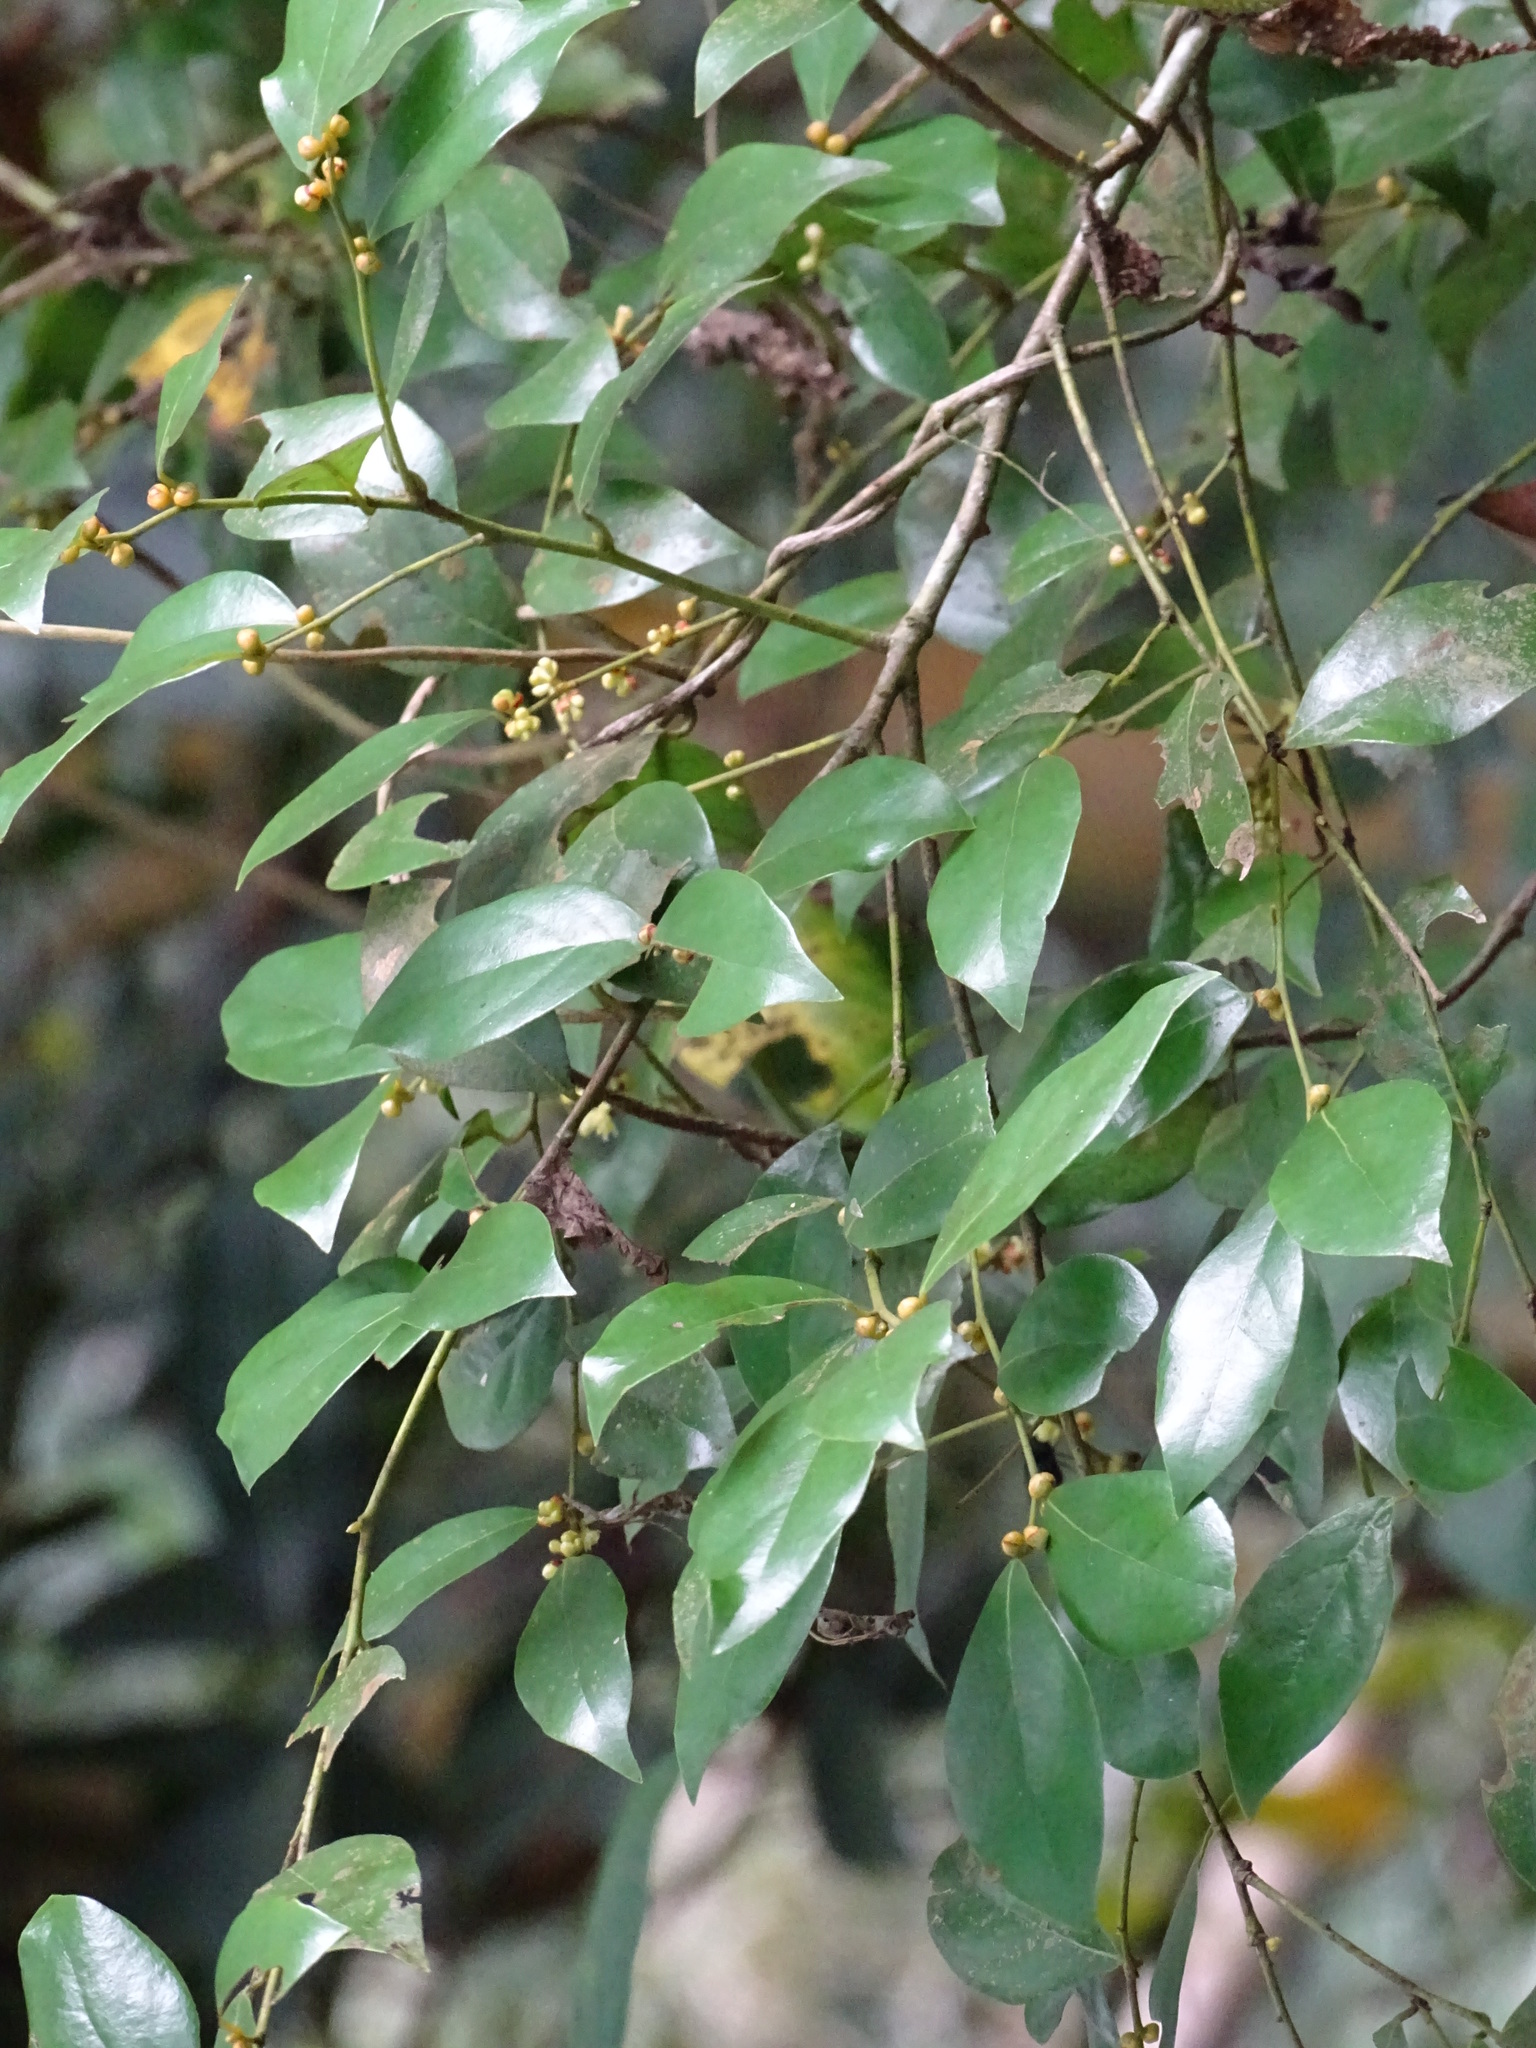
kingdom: Plantae
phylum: Tracheophyta
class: Magnoliopsida
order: Laurales
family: Lauraceae
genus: Lindera
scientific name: Lindera akoensis
